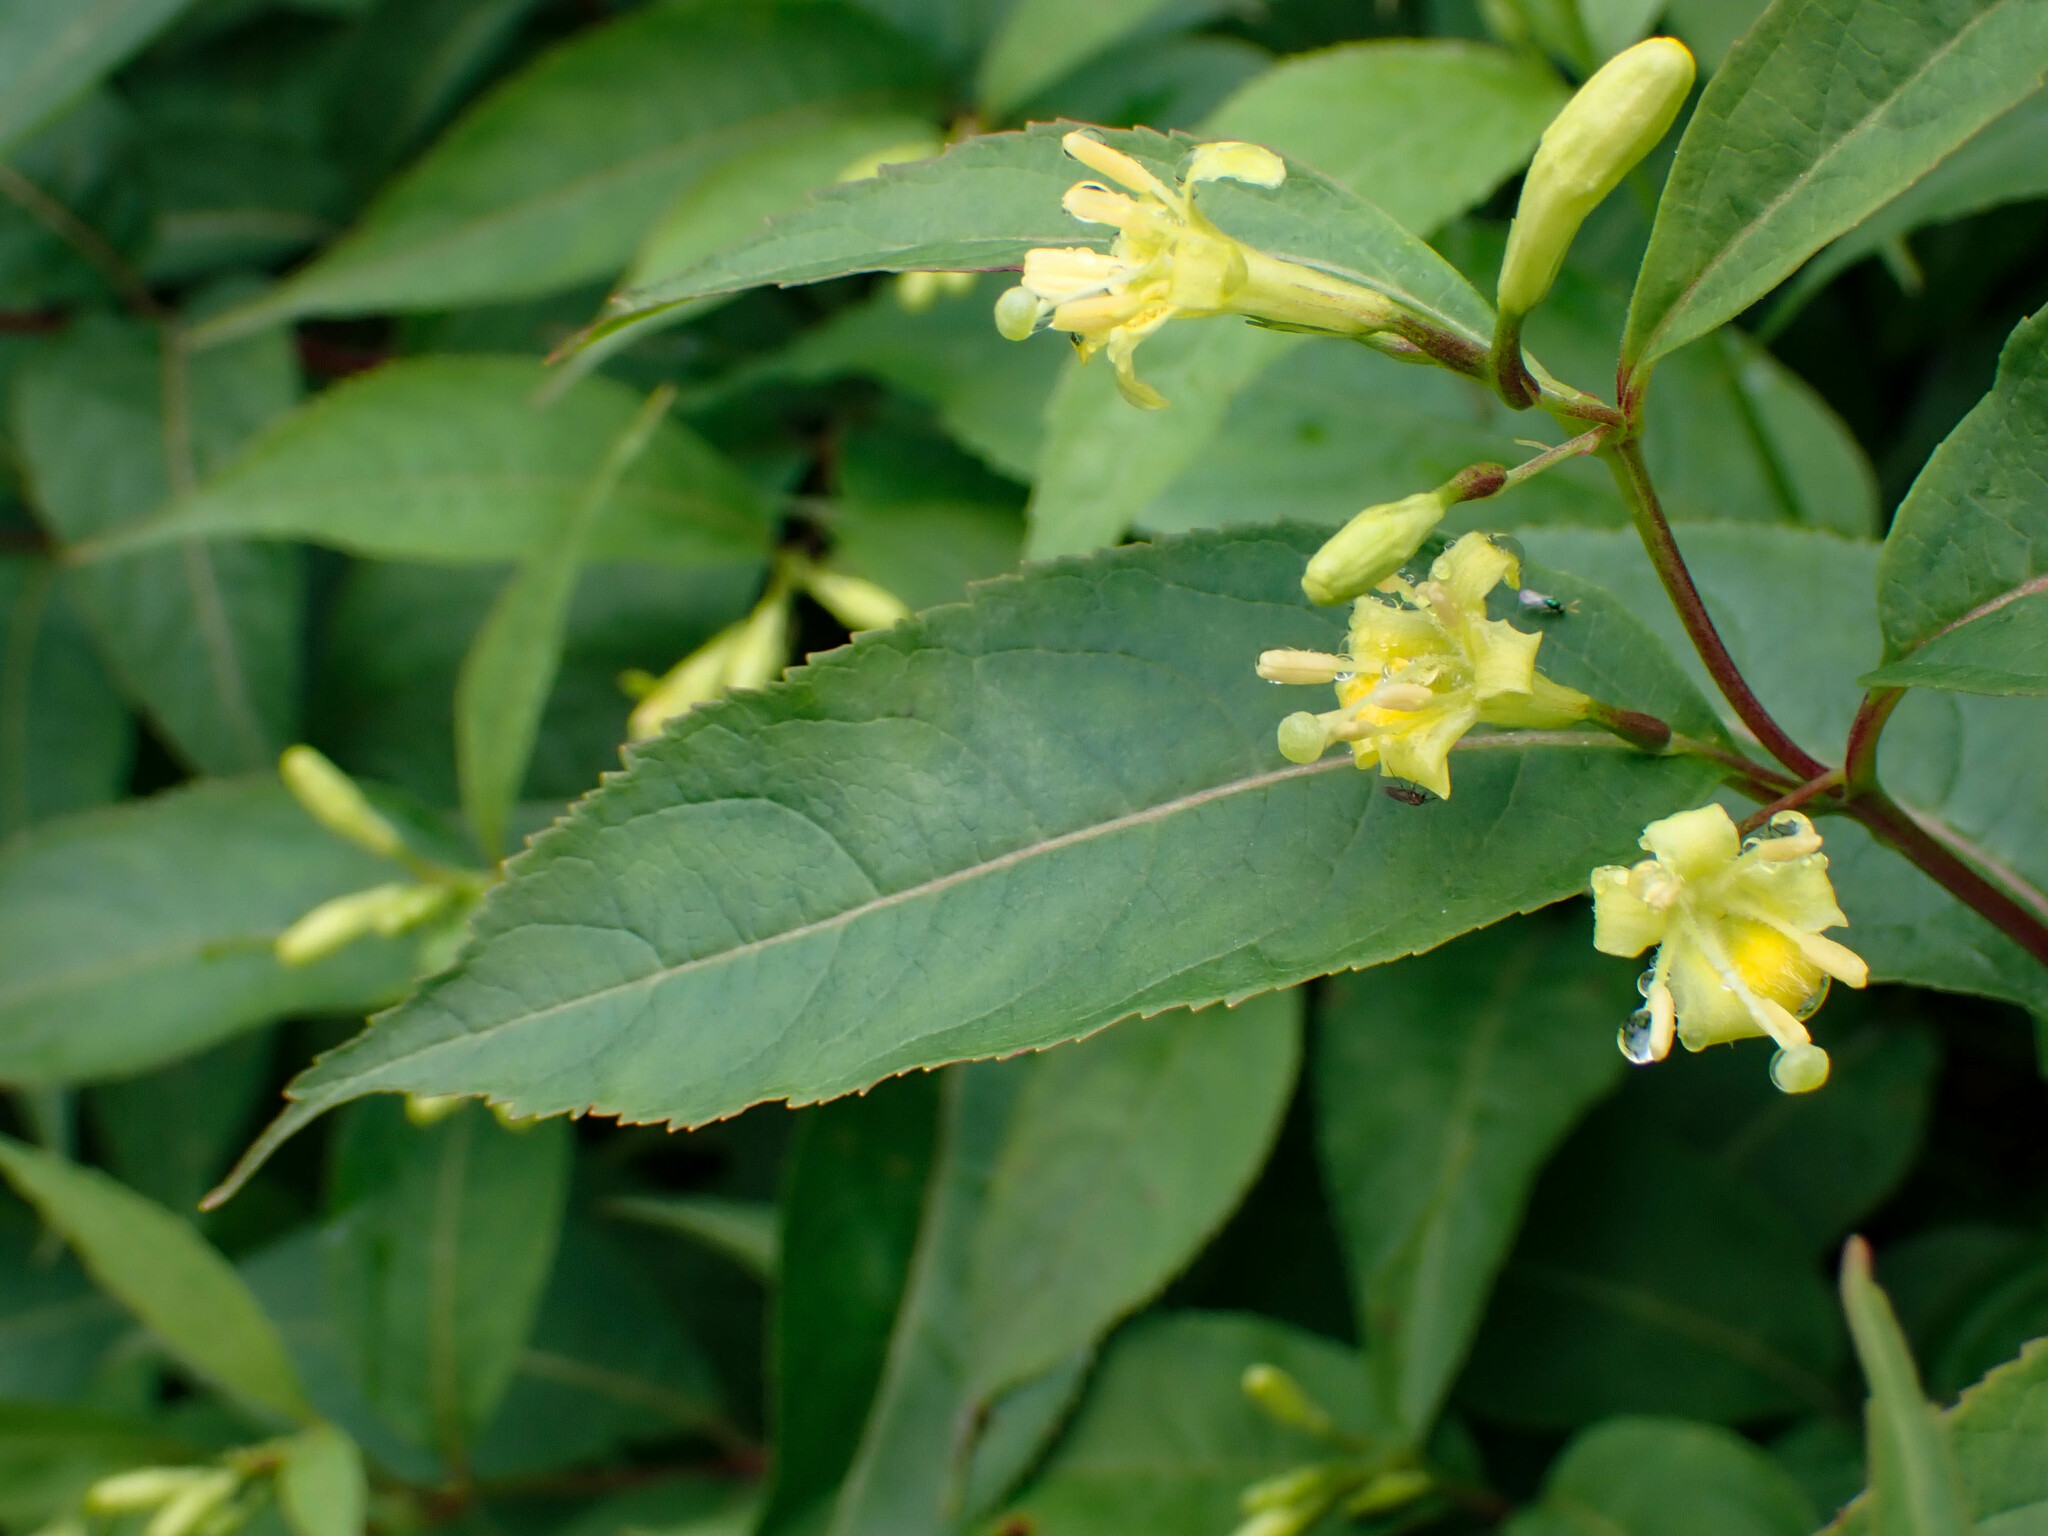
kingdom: Plantae
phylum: Tracheophyta
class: Magnoliopsida
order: Dipsacales
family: Caprifoliaceae
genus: Diervilla
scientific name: Diervilla lonicera
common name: Bush-honeysuckle
